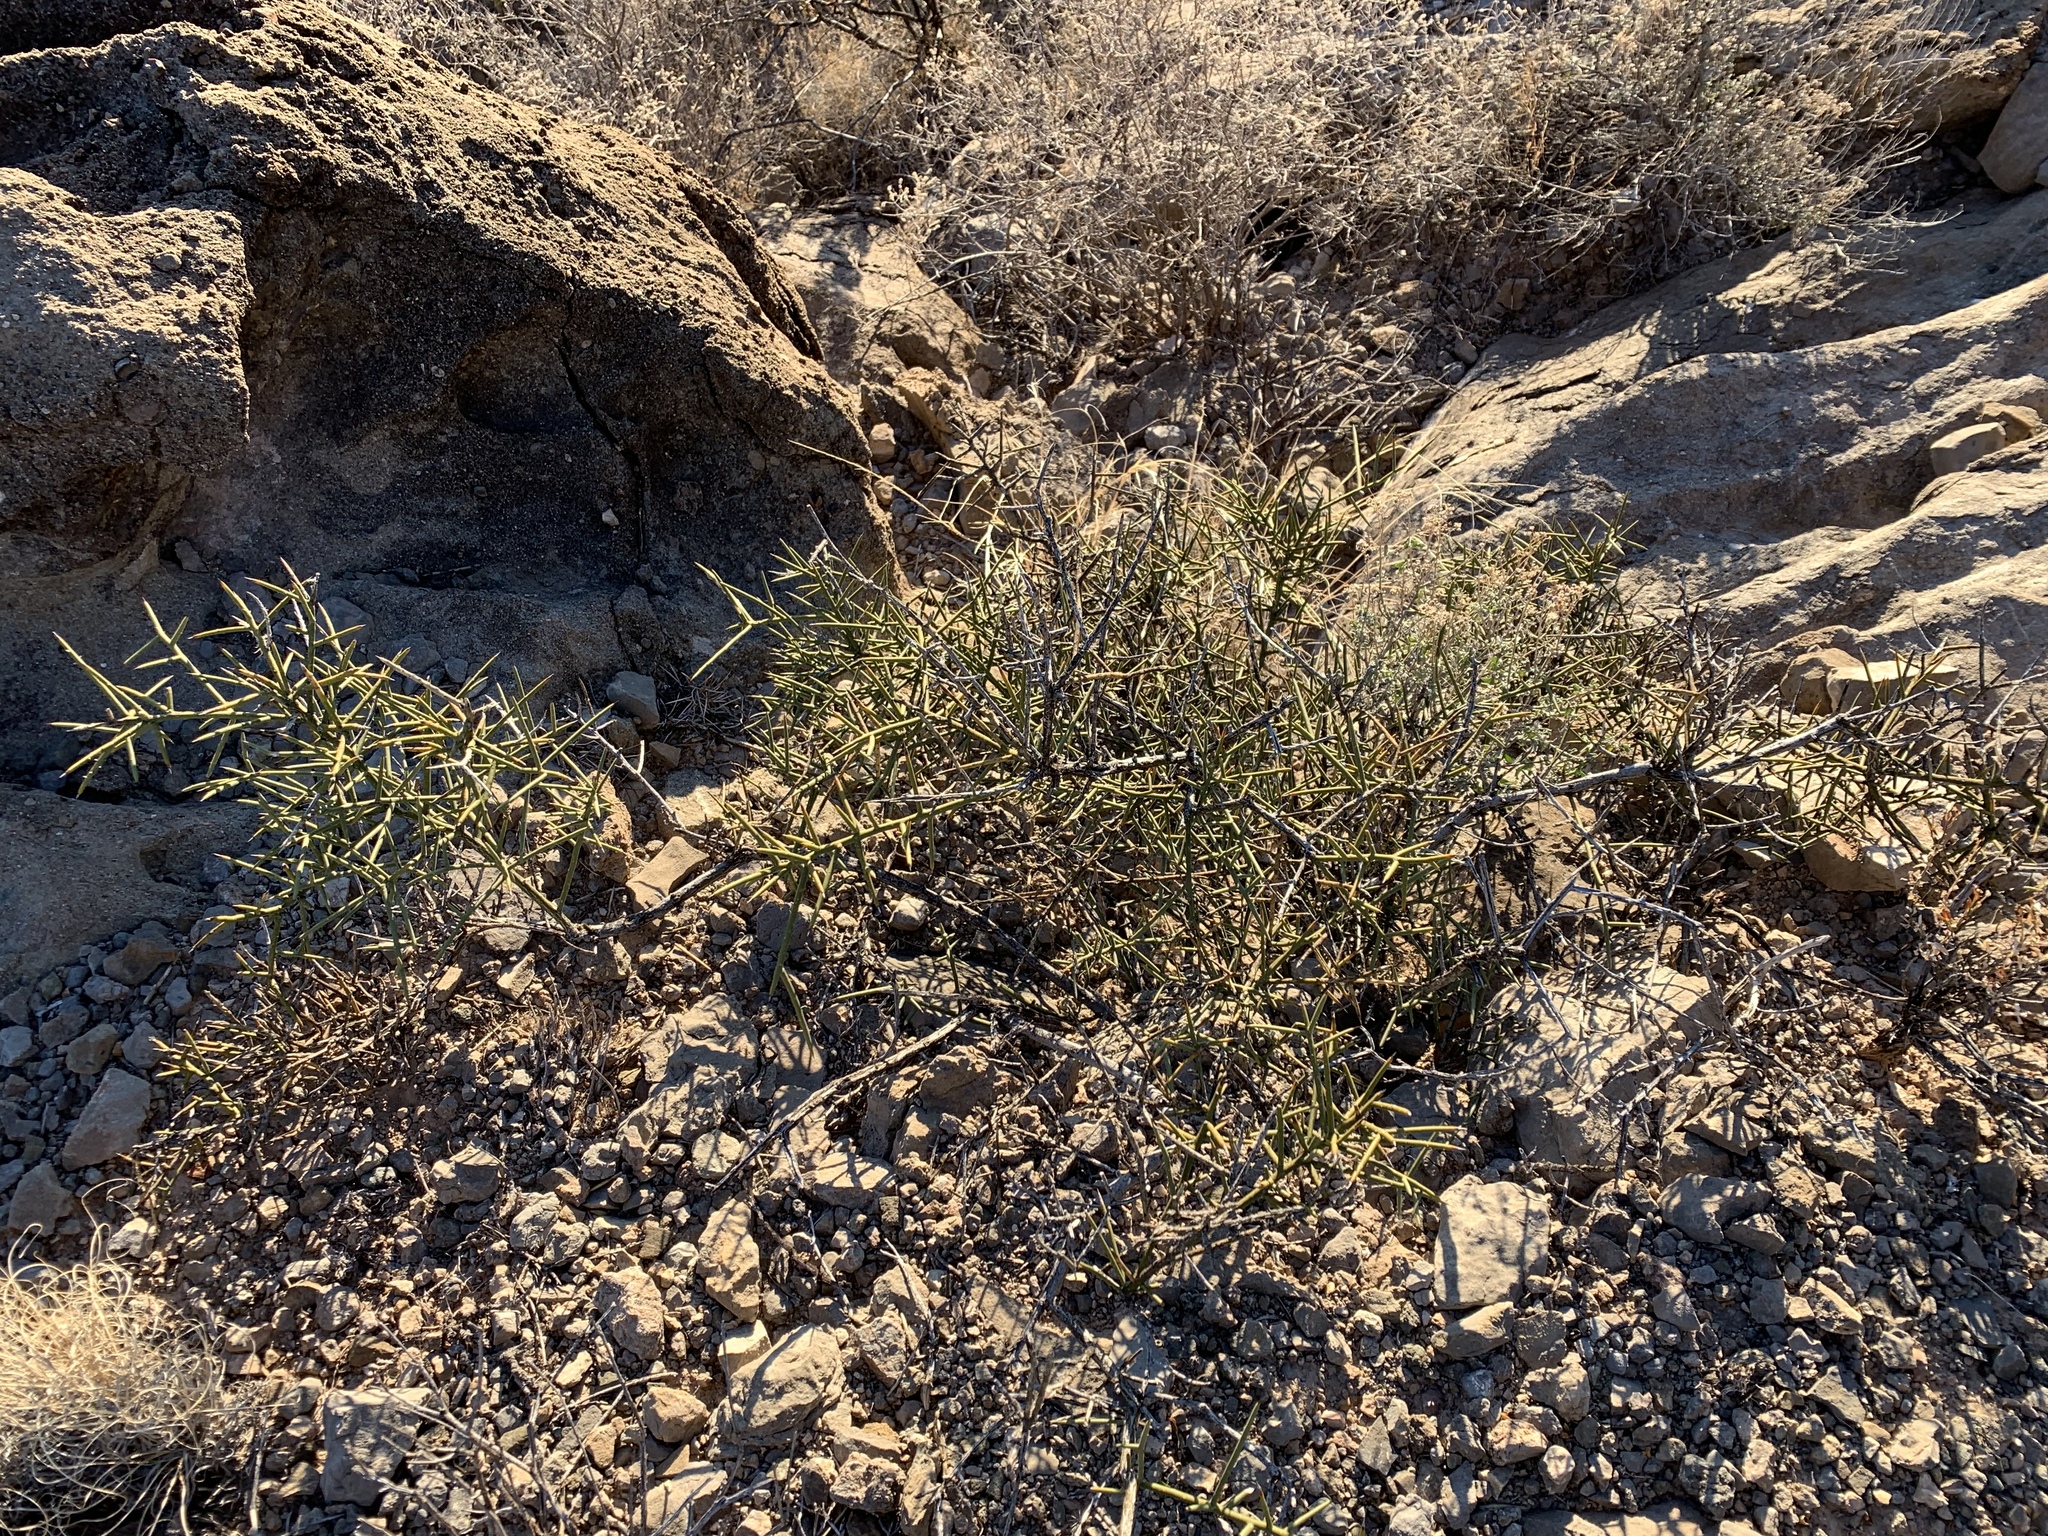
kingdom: Plantae
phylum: Tracheophyta
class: Magnoliopsida
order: Brassicales
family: Koeberliniaceae
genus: Koeberlinia
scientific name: Koeberlinia spinosa
